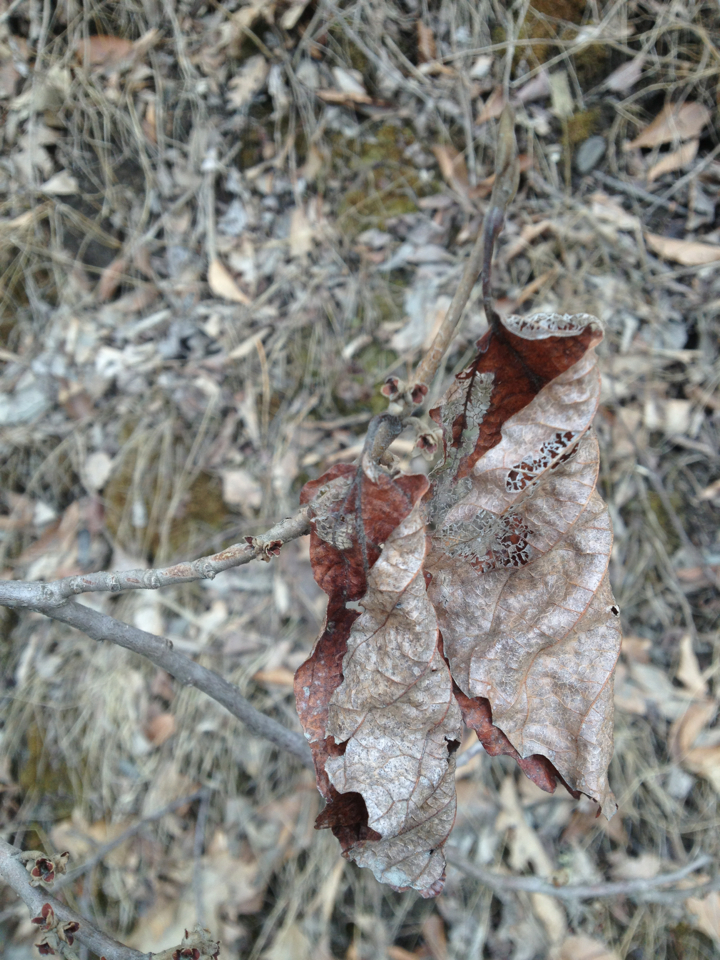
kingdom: Plantae
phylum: Tracheophyta
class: Magnoliopsida
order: Saxifragales
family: Hamamelidaceae
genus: Hamamelis
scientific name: Hamamelis virginiana
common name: Witch-hazel
